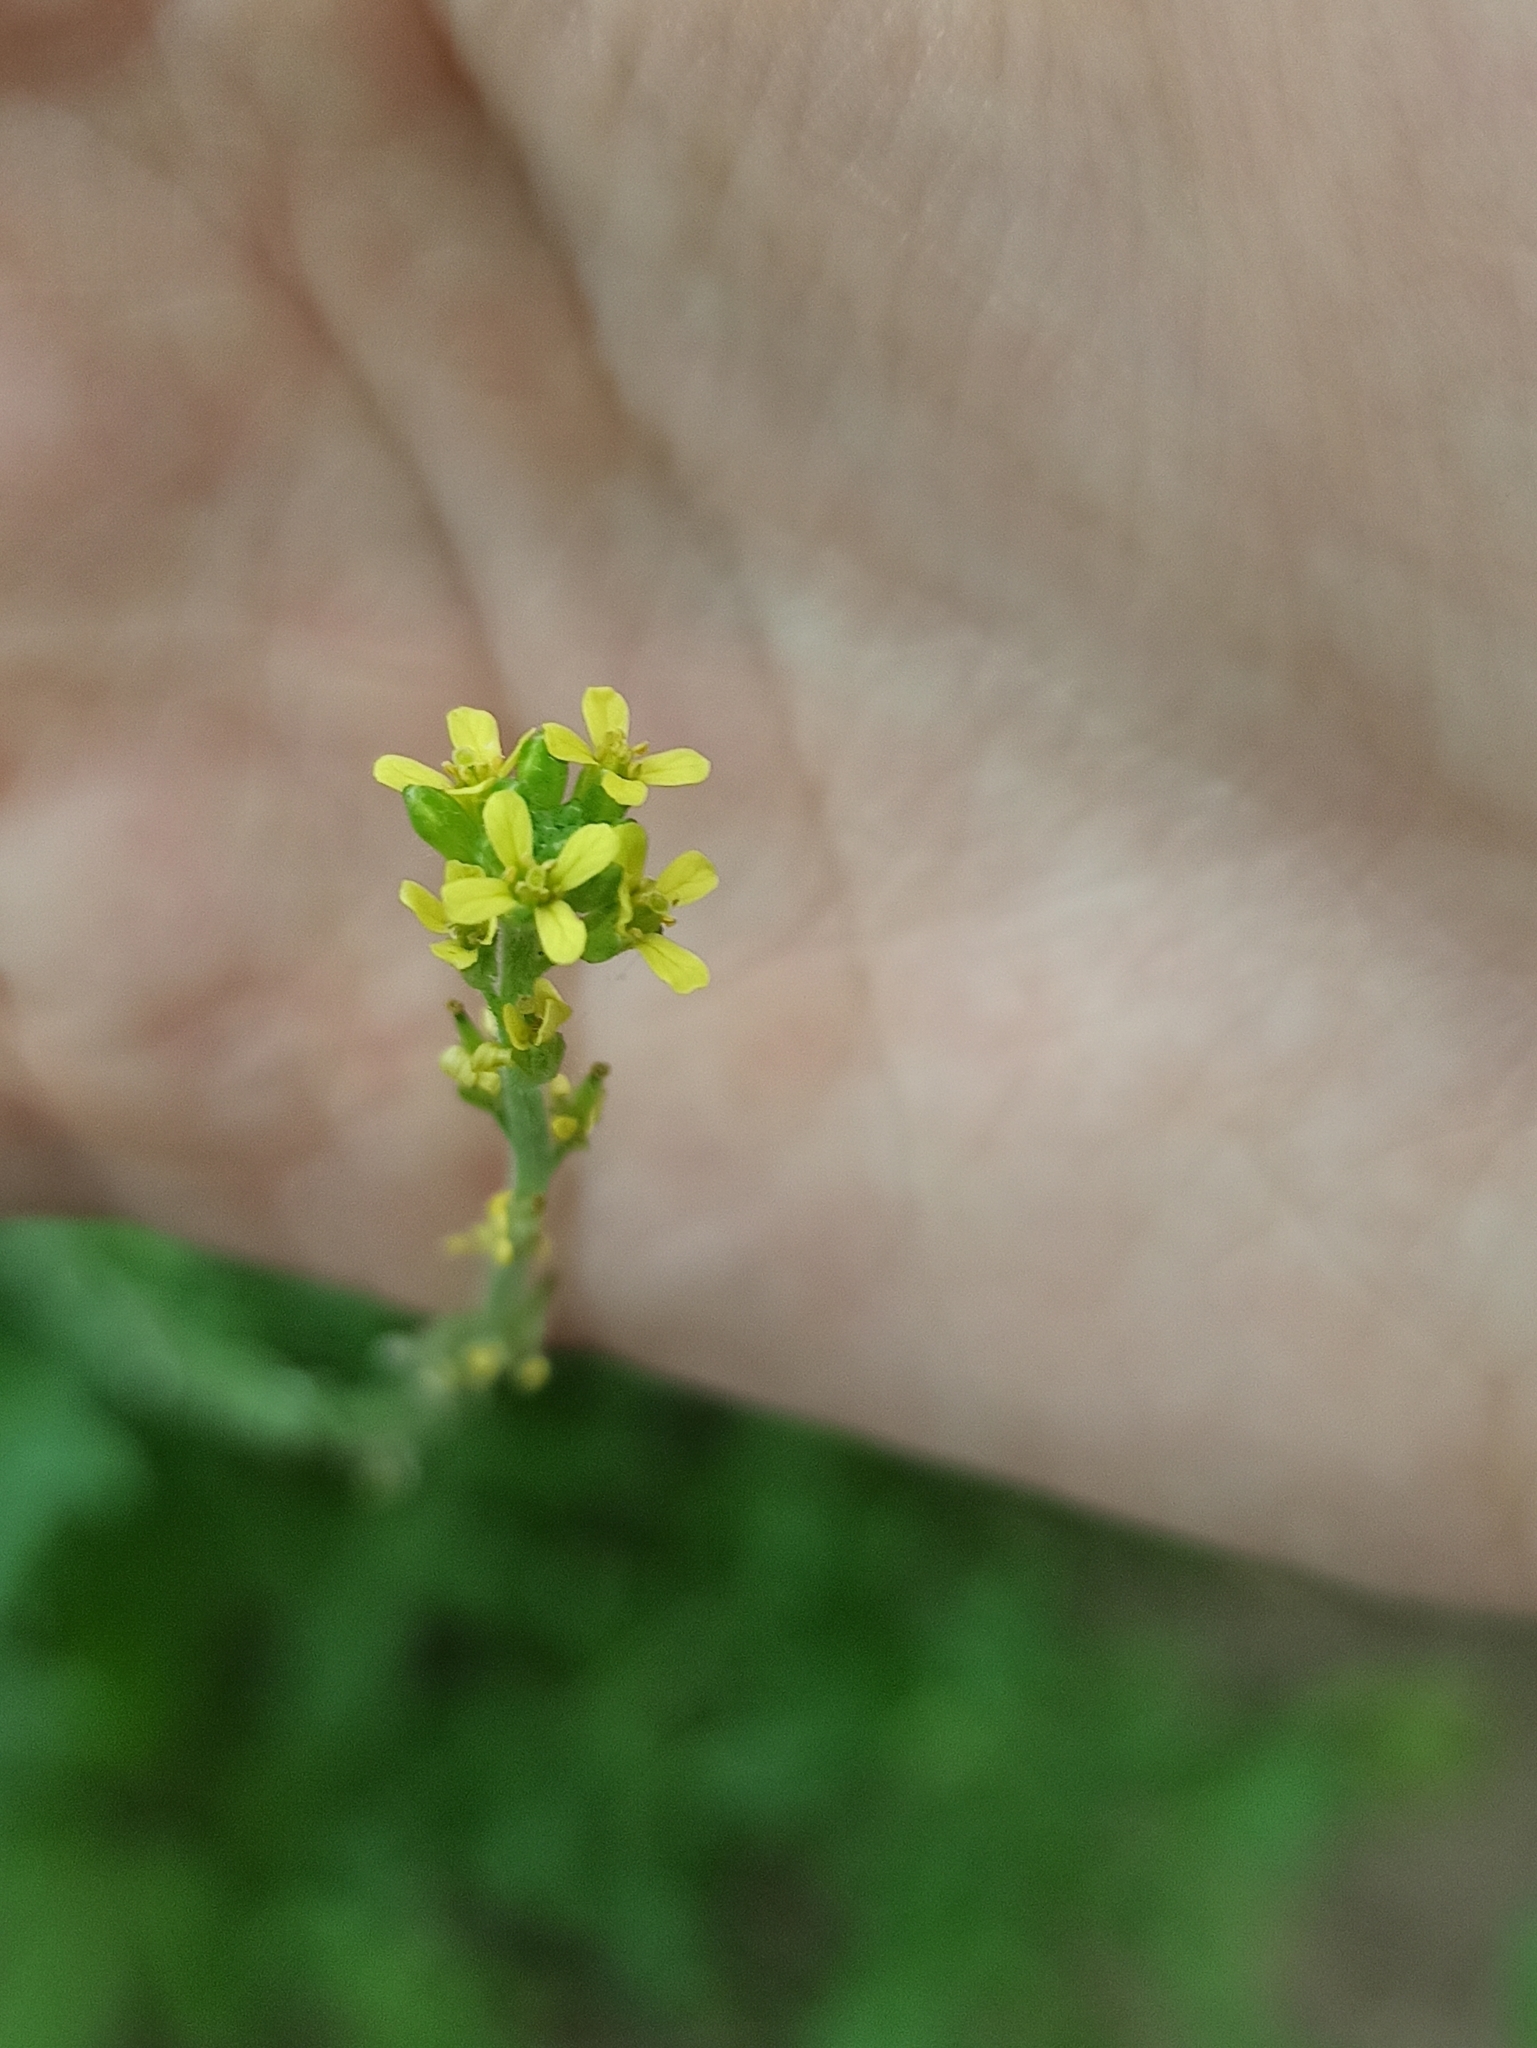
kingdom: Plantae
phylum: Tracheophyta
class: Magnoliopsida
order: Brassicales
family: Brassicaceae
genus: Sisymbrium
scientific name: Sisymbrium officinale
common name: Hedge mustard
